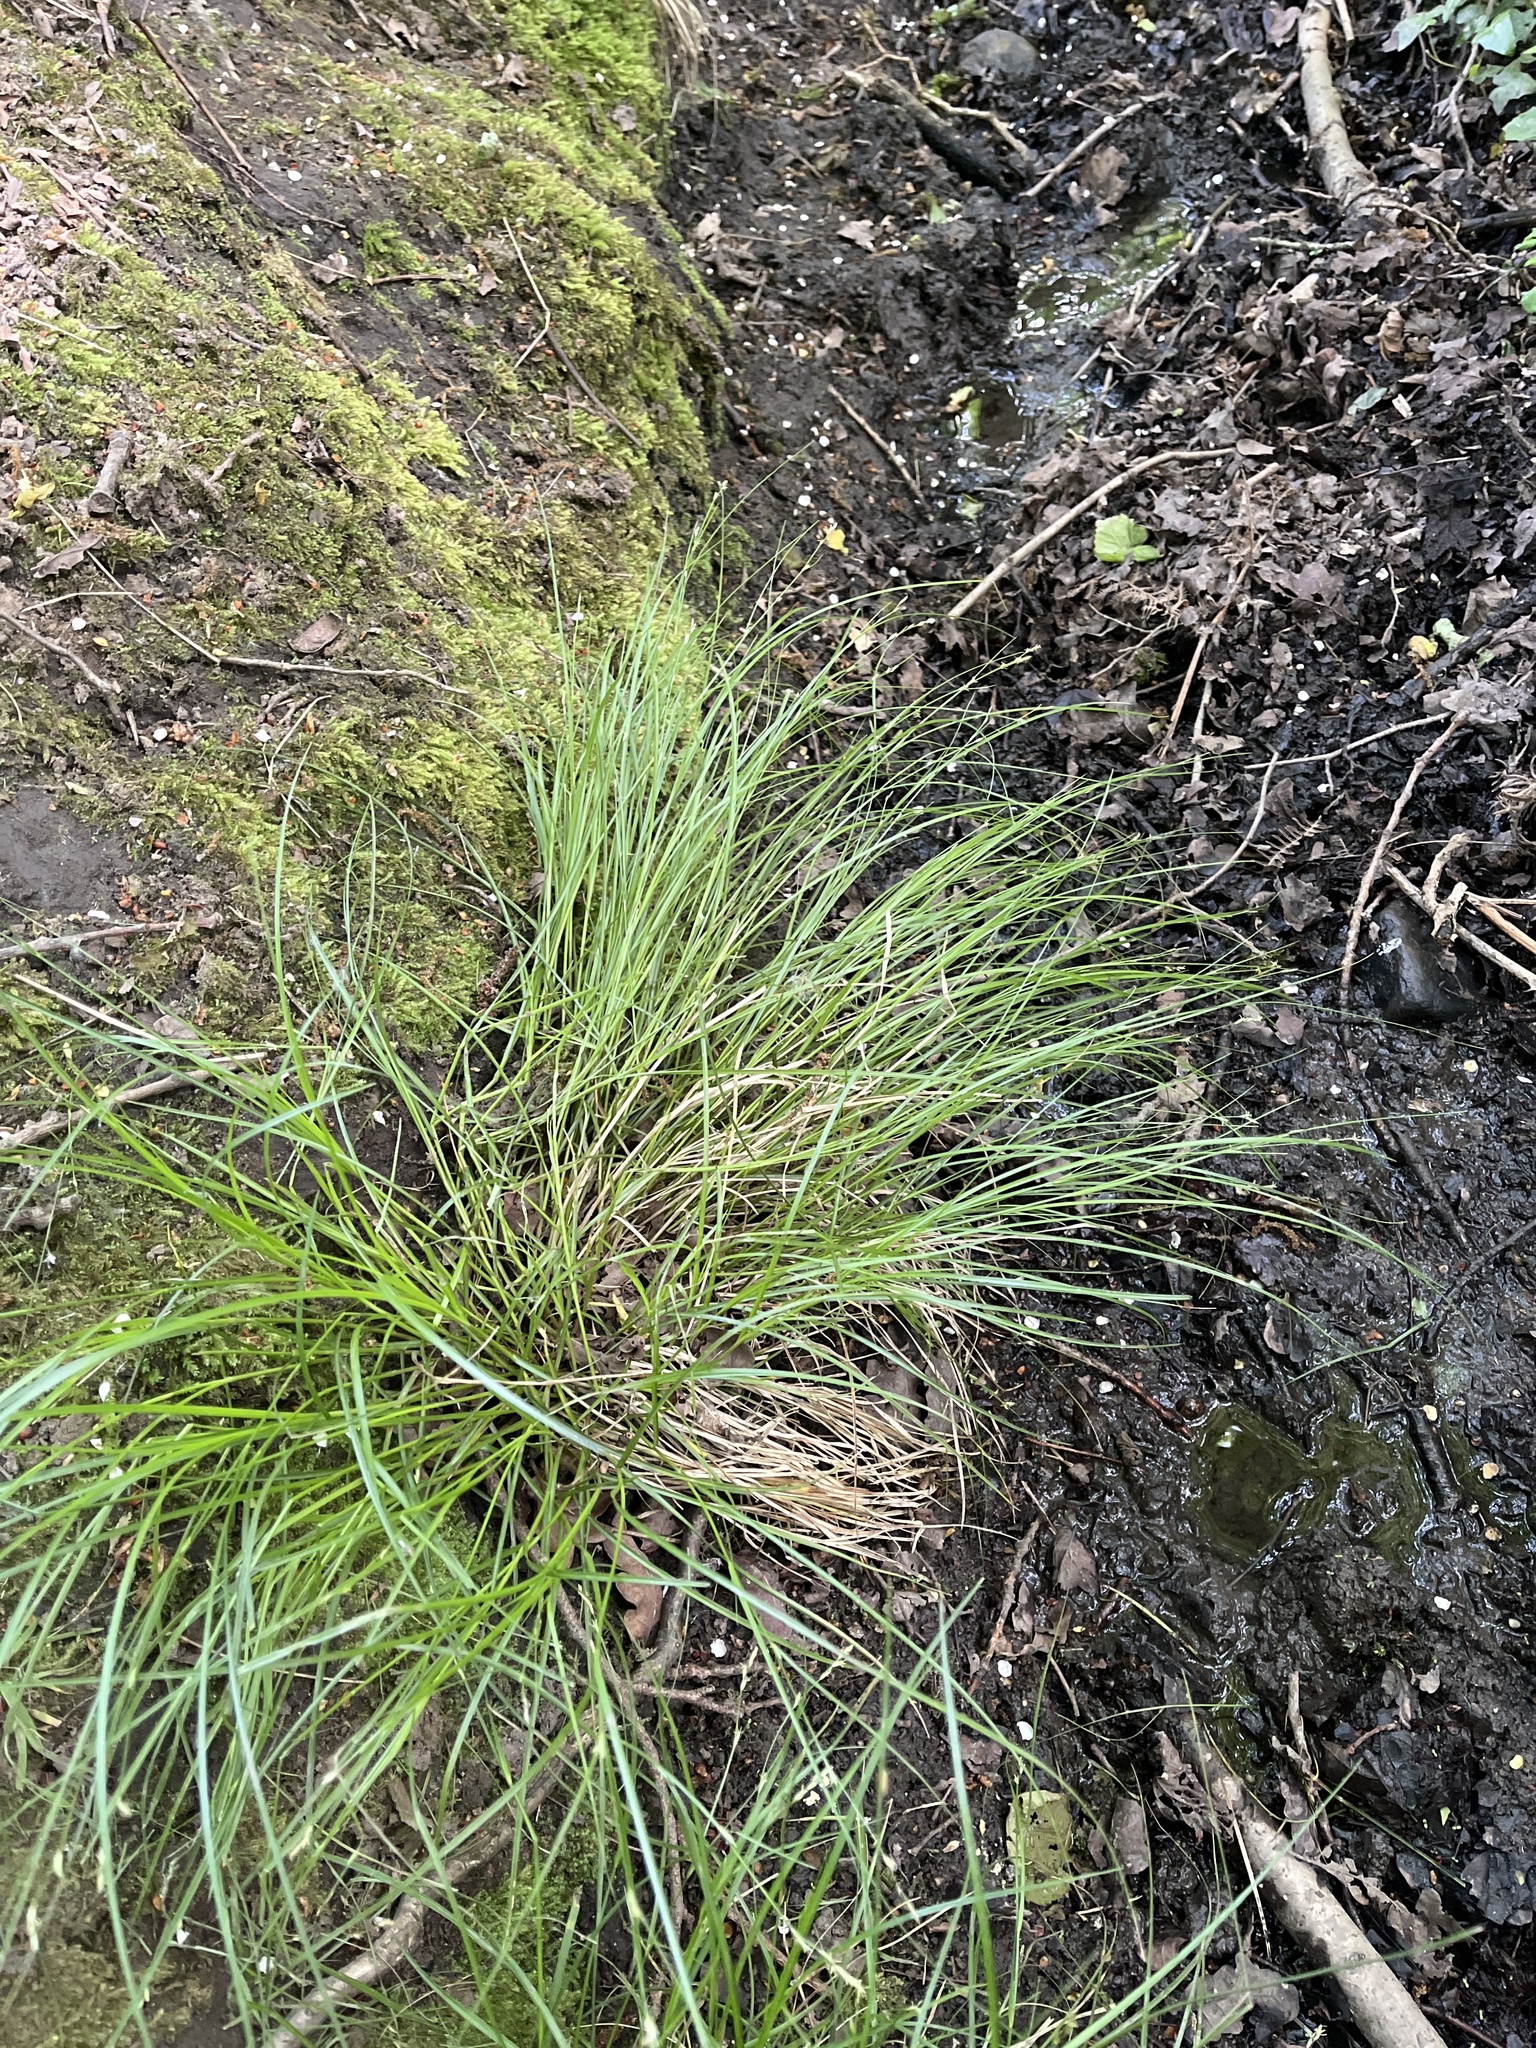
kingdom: Plantae
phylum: Tracheophyta
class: Liliopsida
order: Poales
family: Cyperaceae
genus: Carex
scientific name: Carex remota
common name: Remote sedge
